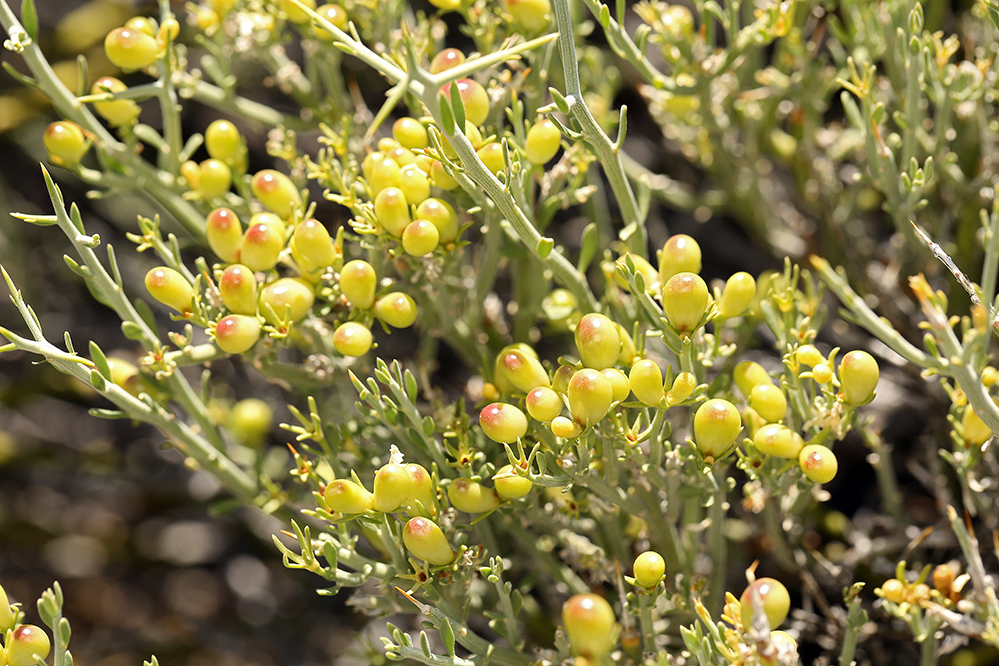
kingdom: Plantae
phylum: Tracheophyta
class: Magnoliopsida
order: Lamiales
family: Oleaceae
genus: Menodora
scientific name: Menodora spinescens
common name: Spiny menodora
